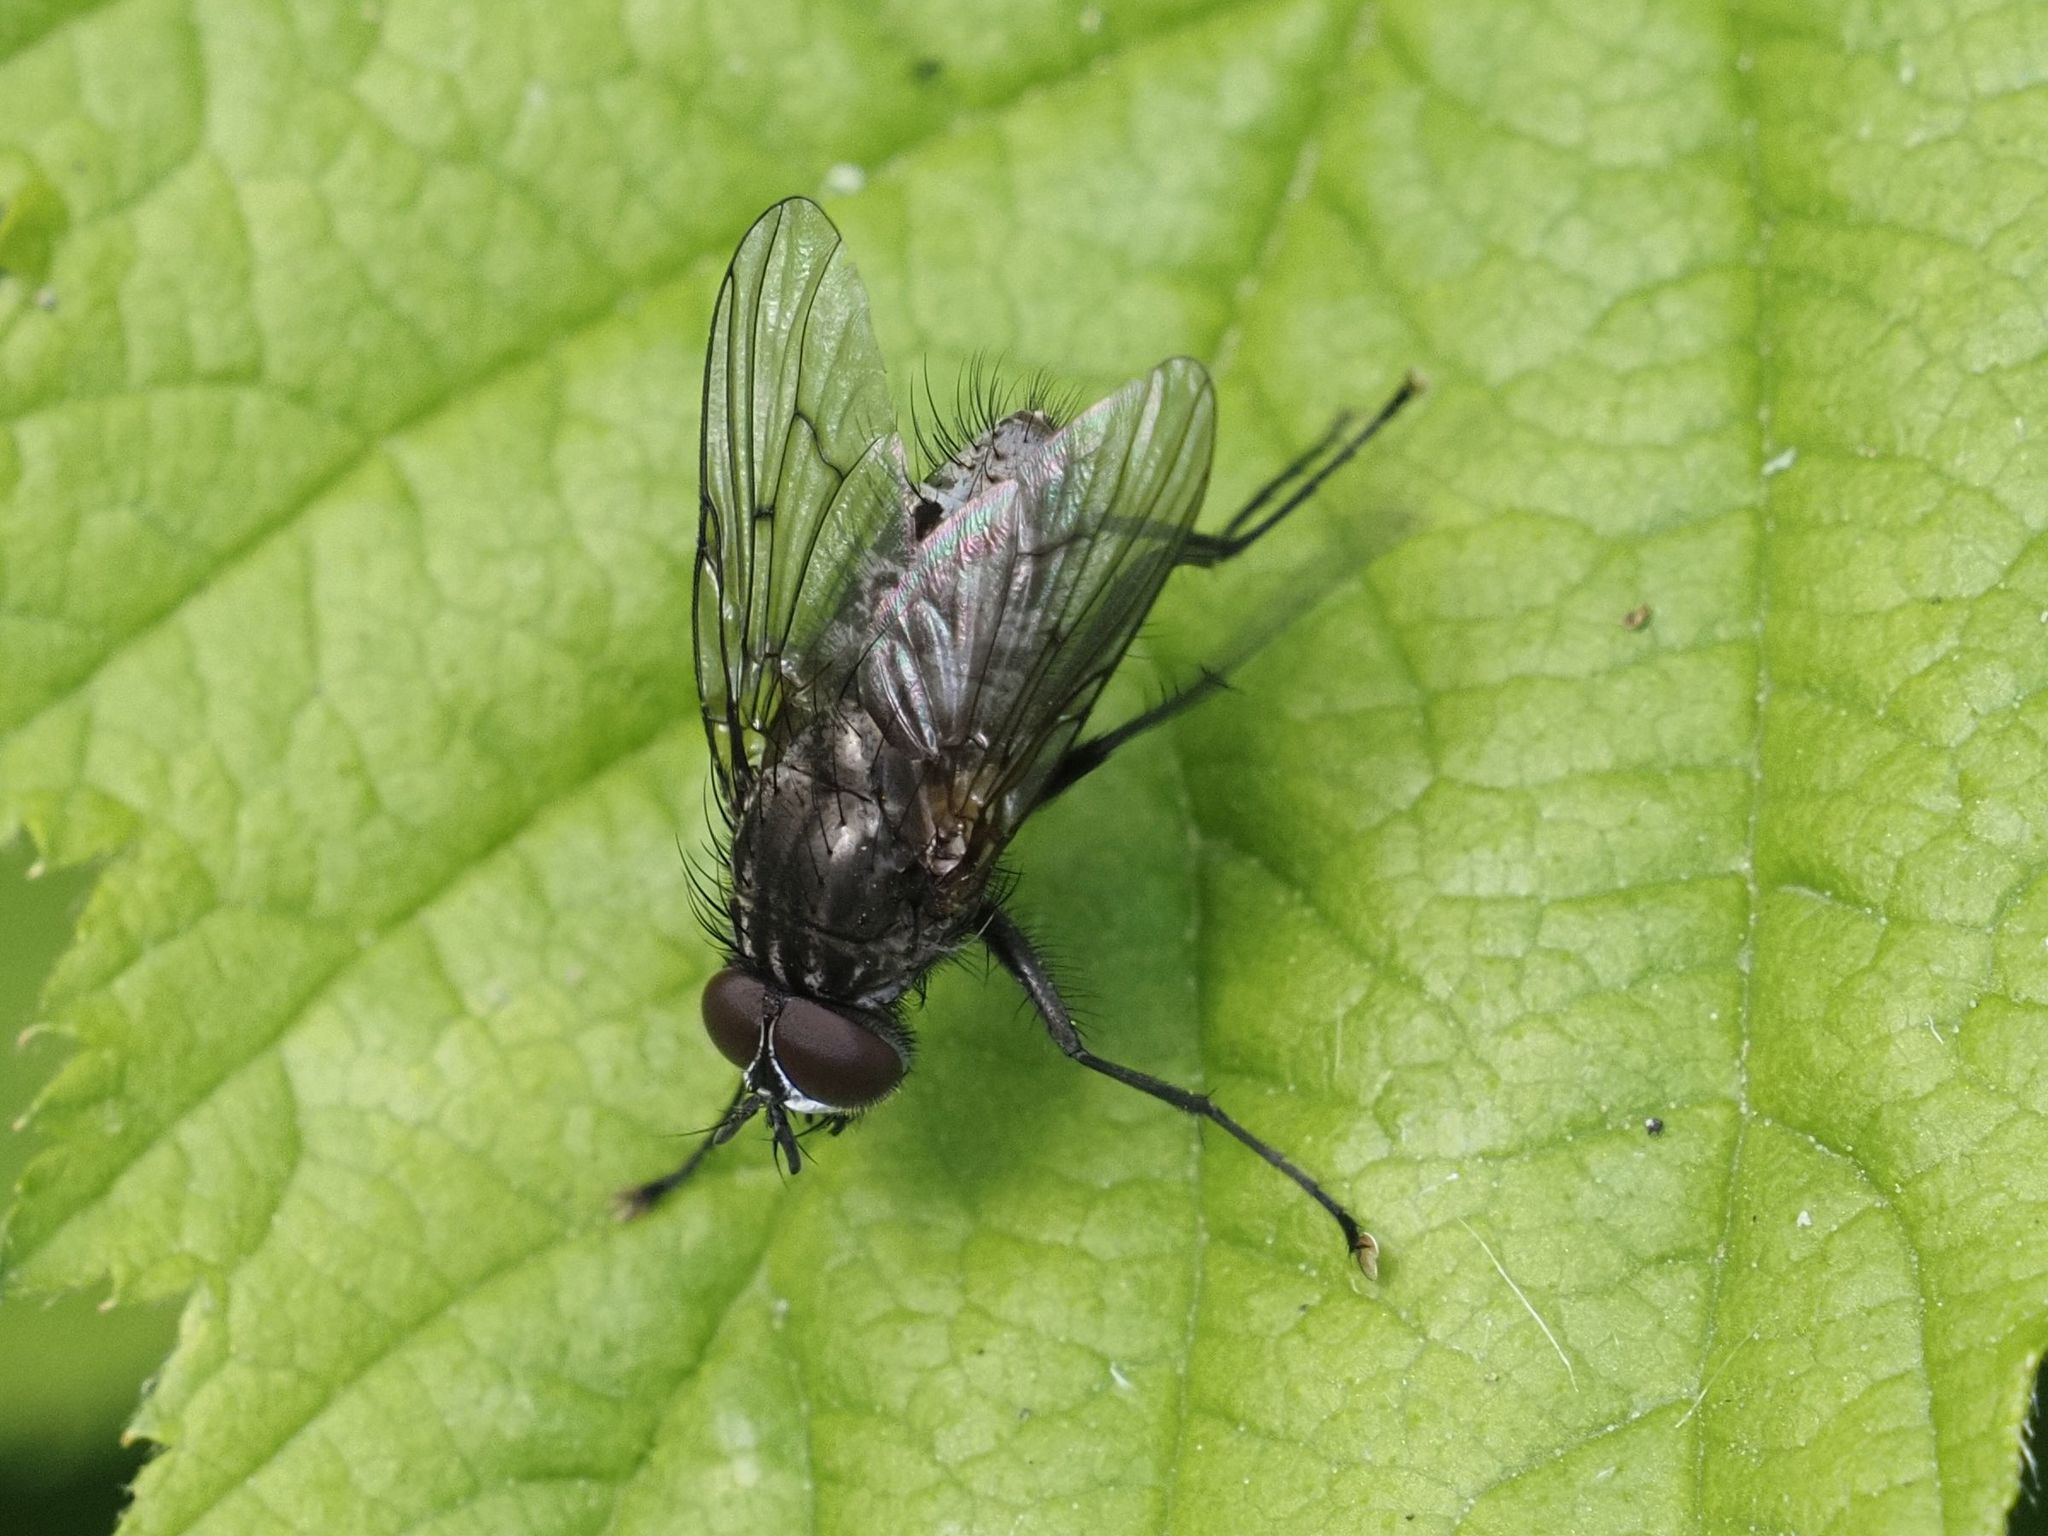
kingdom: Animalia
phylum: Arthropoda
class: Insecta
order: Diptera
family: Muscidae
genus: Helina
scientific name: Helina evecta
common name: Muscid fly
